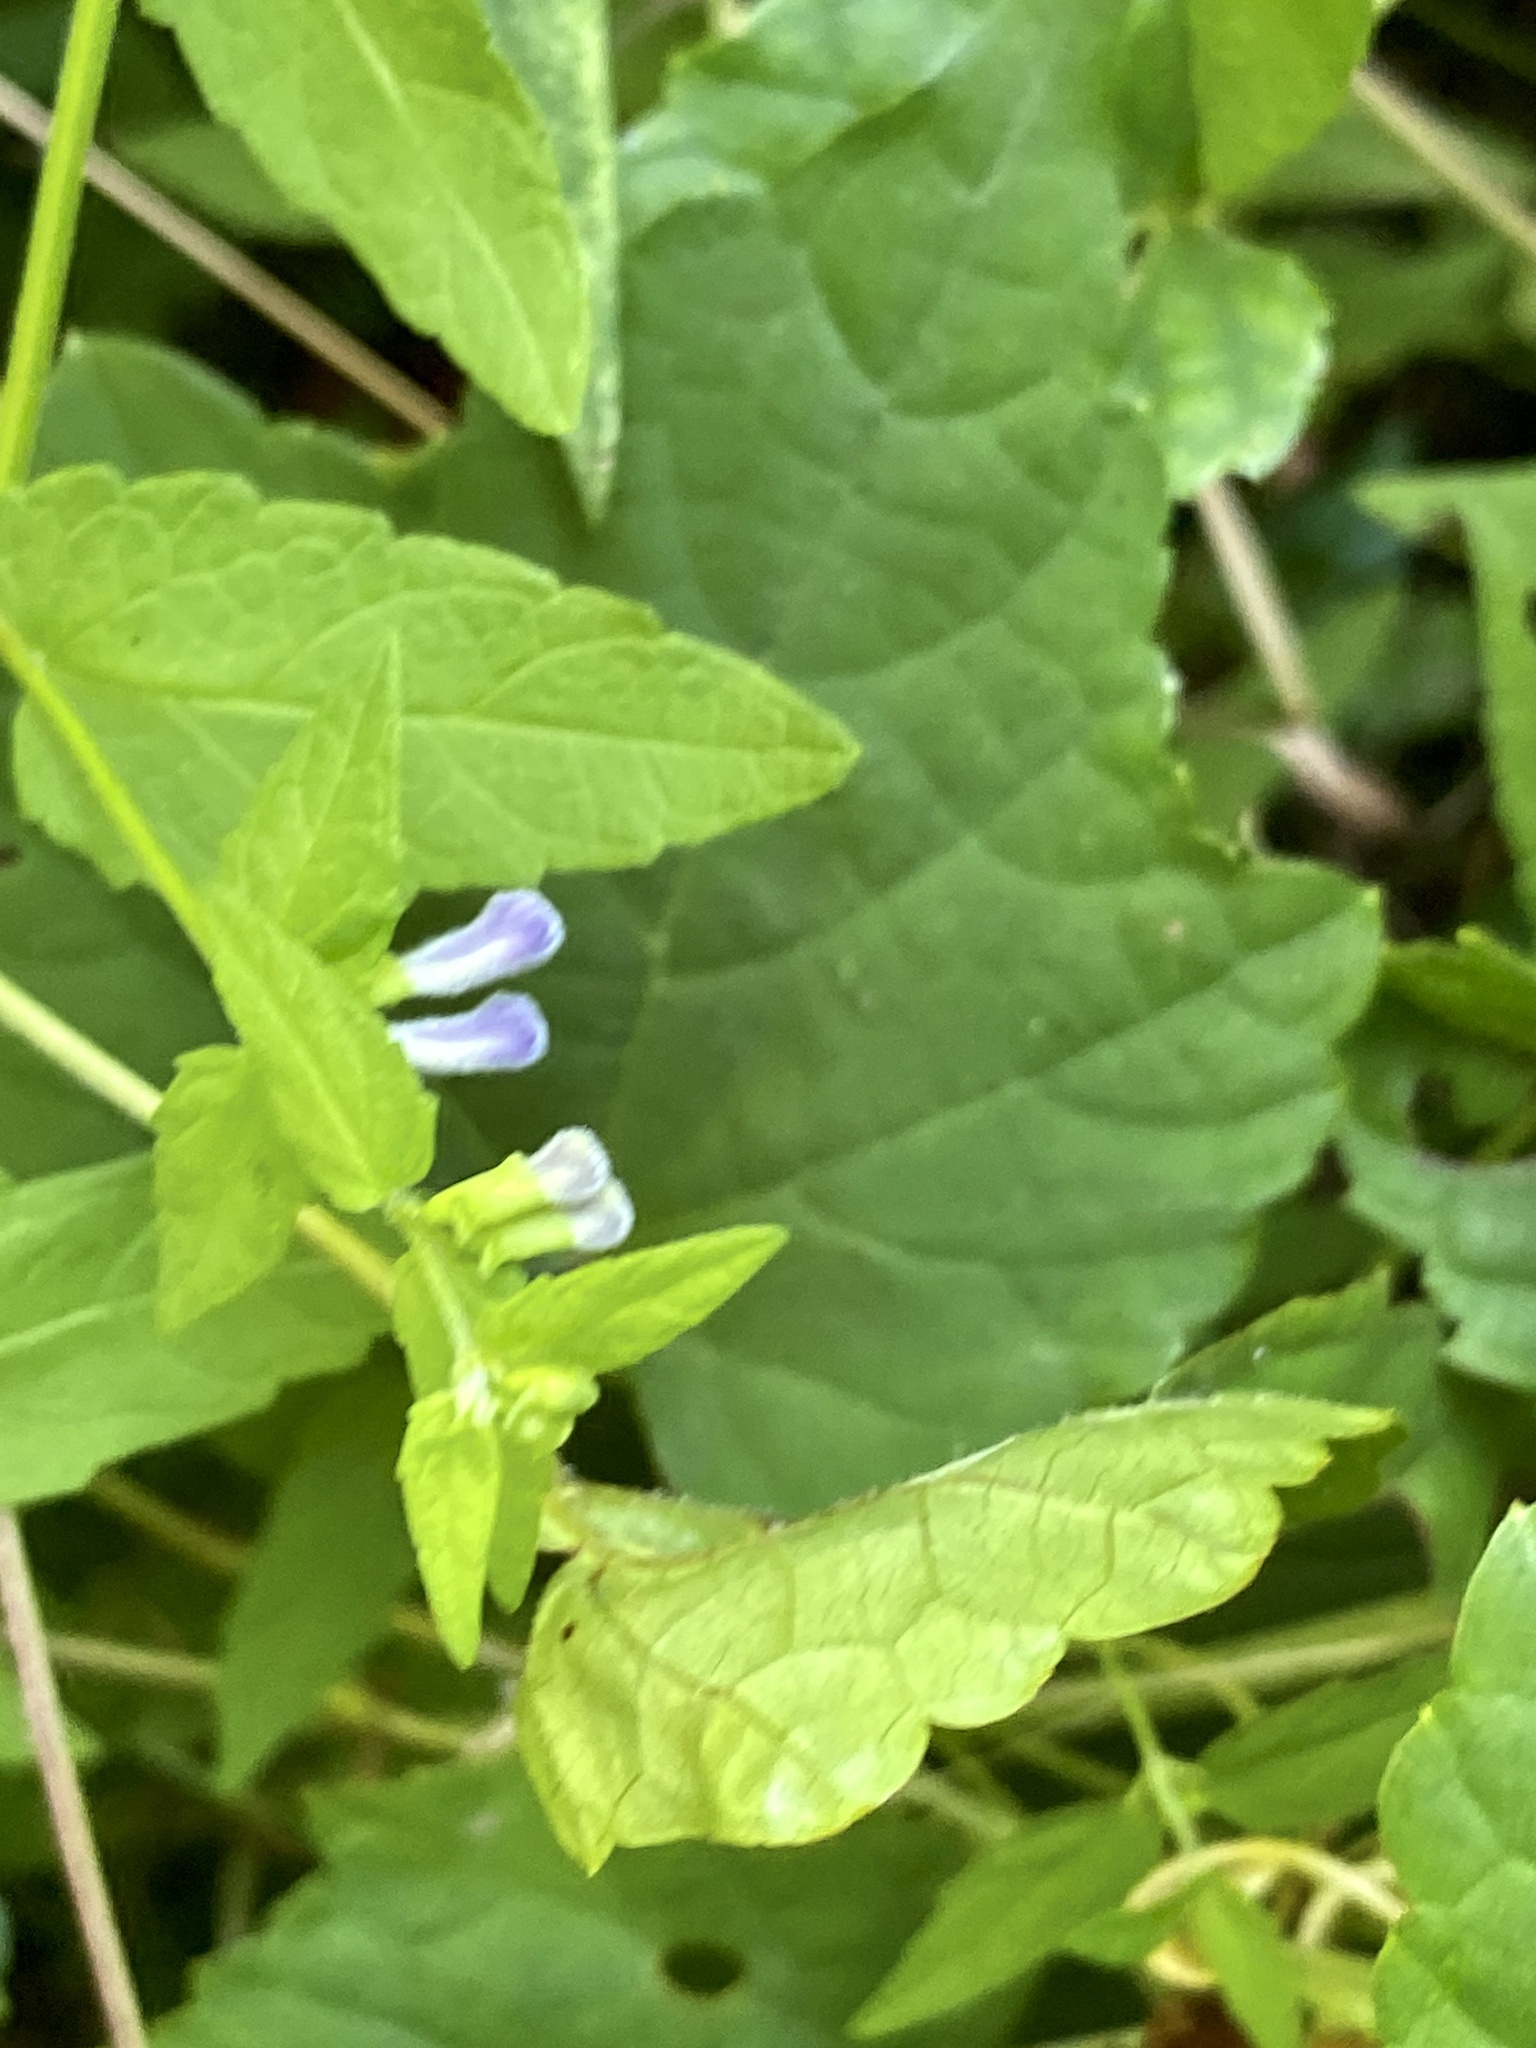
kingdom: Plantae
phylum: Tracheophyta
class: Magnoliopsida
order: Lamiales
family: Lamiaceae
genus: Scutellaria
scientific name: Scutellaria churchilliana
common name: Churchill's skullcap
